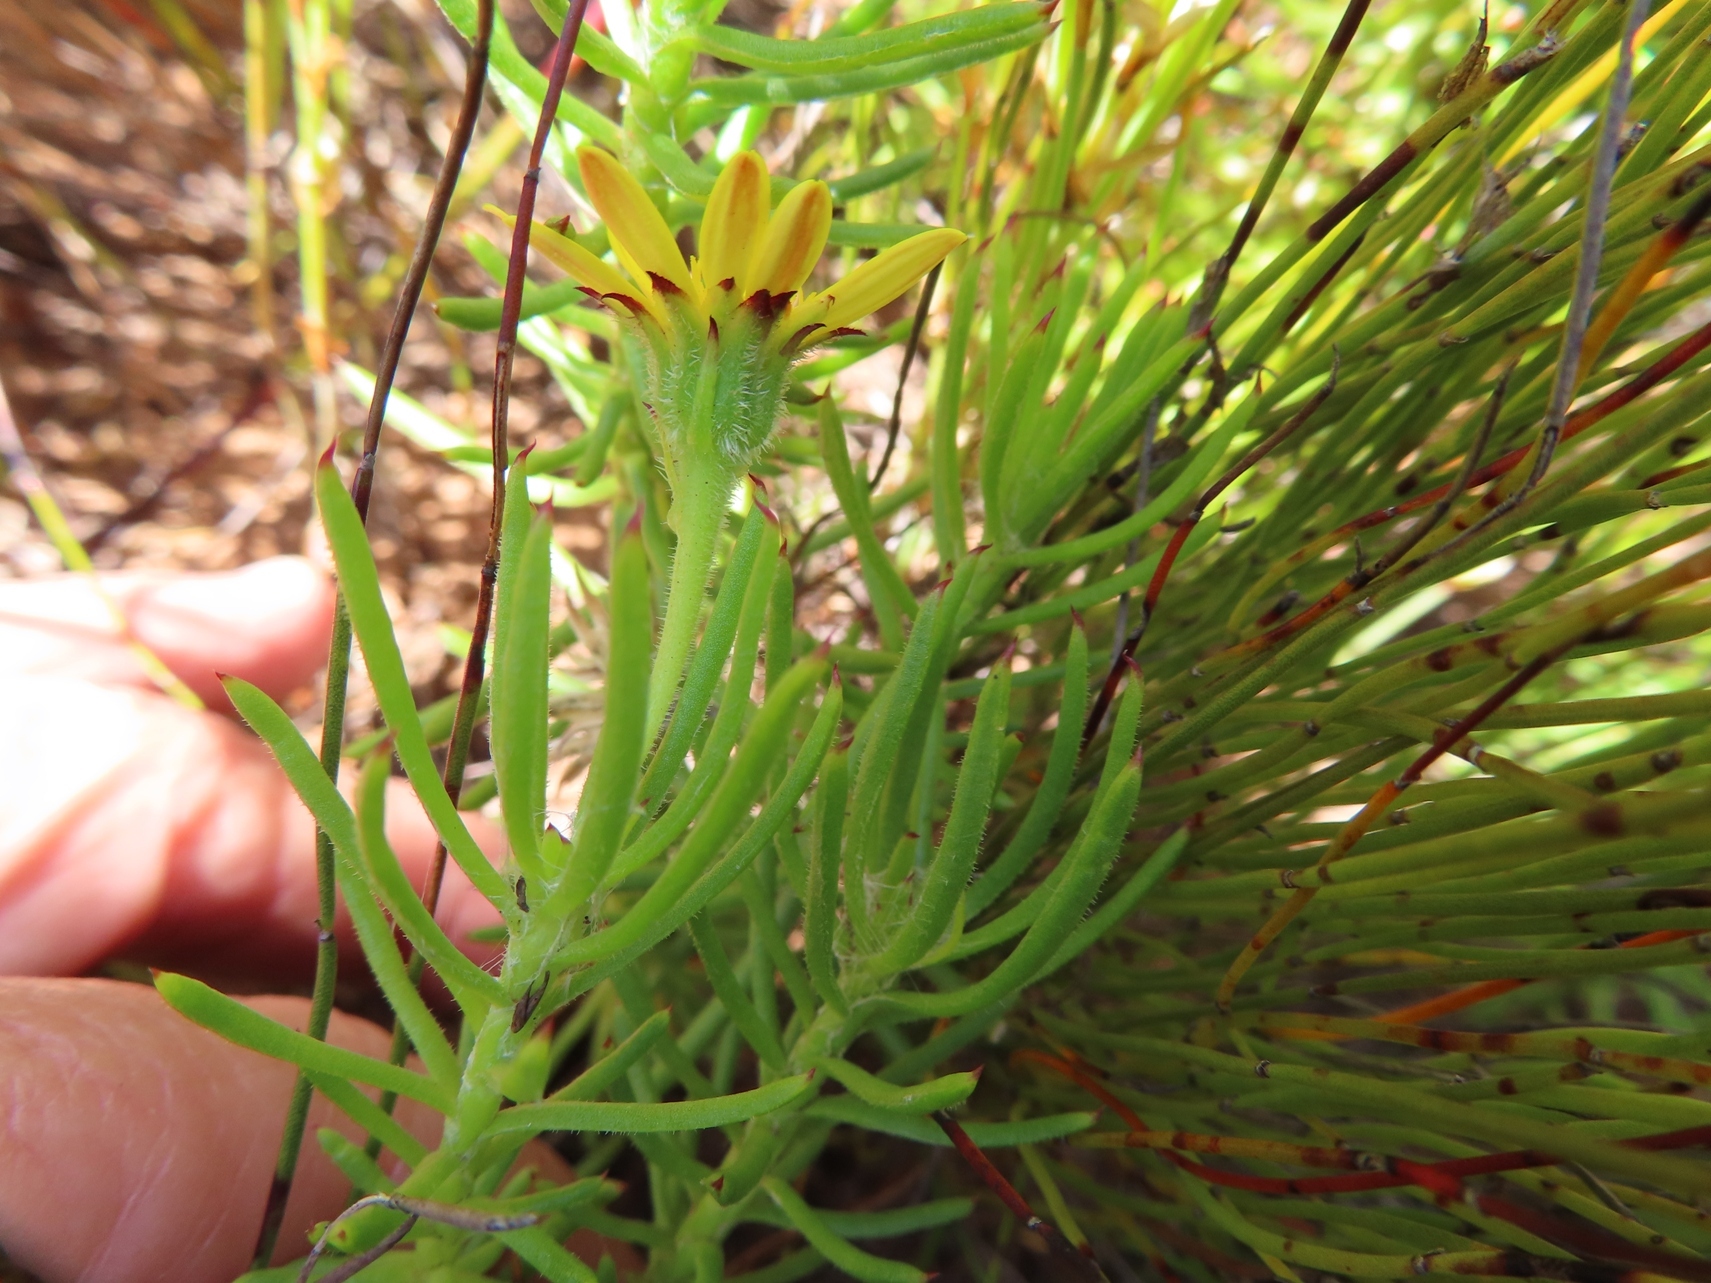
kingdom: Plantae
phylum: Tracheophyta
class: Magnoliopsida
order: Asterales
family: Asteraceae
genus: Osteospermum
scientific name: Osteospermum subulatum
